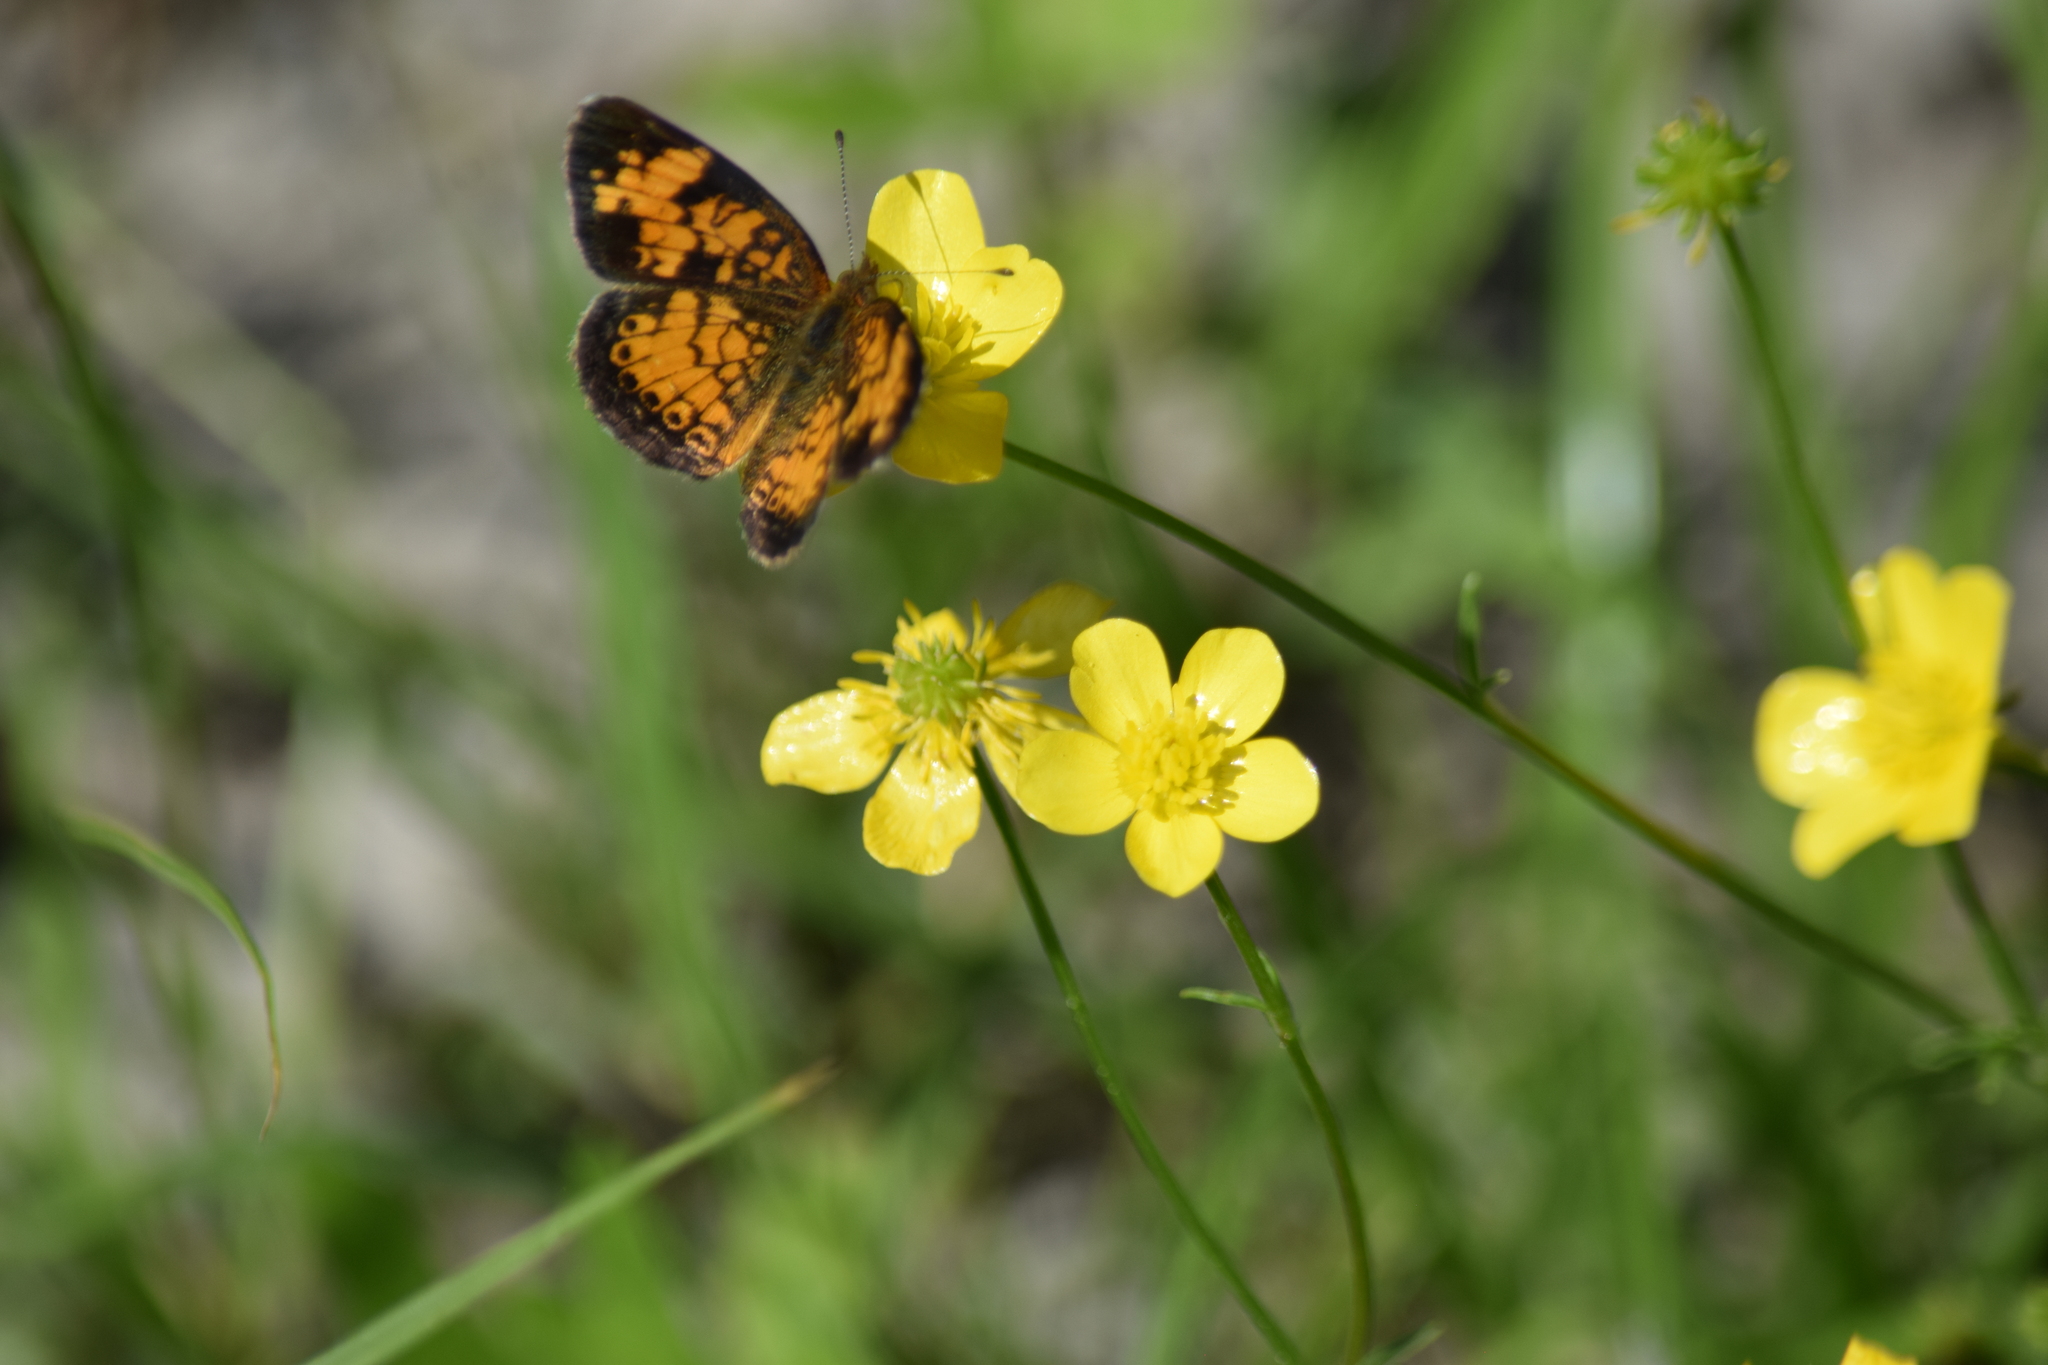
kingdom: Animalia
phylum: Arthropoda
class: Insecta
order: Lepidoptera
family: Nymphalidae
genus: Phyciodes
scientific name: Phyciodes tharos
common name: Pearl crescent
